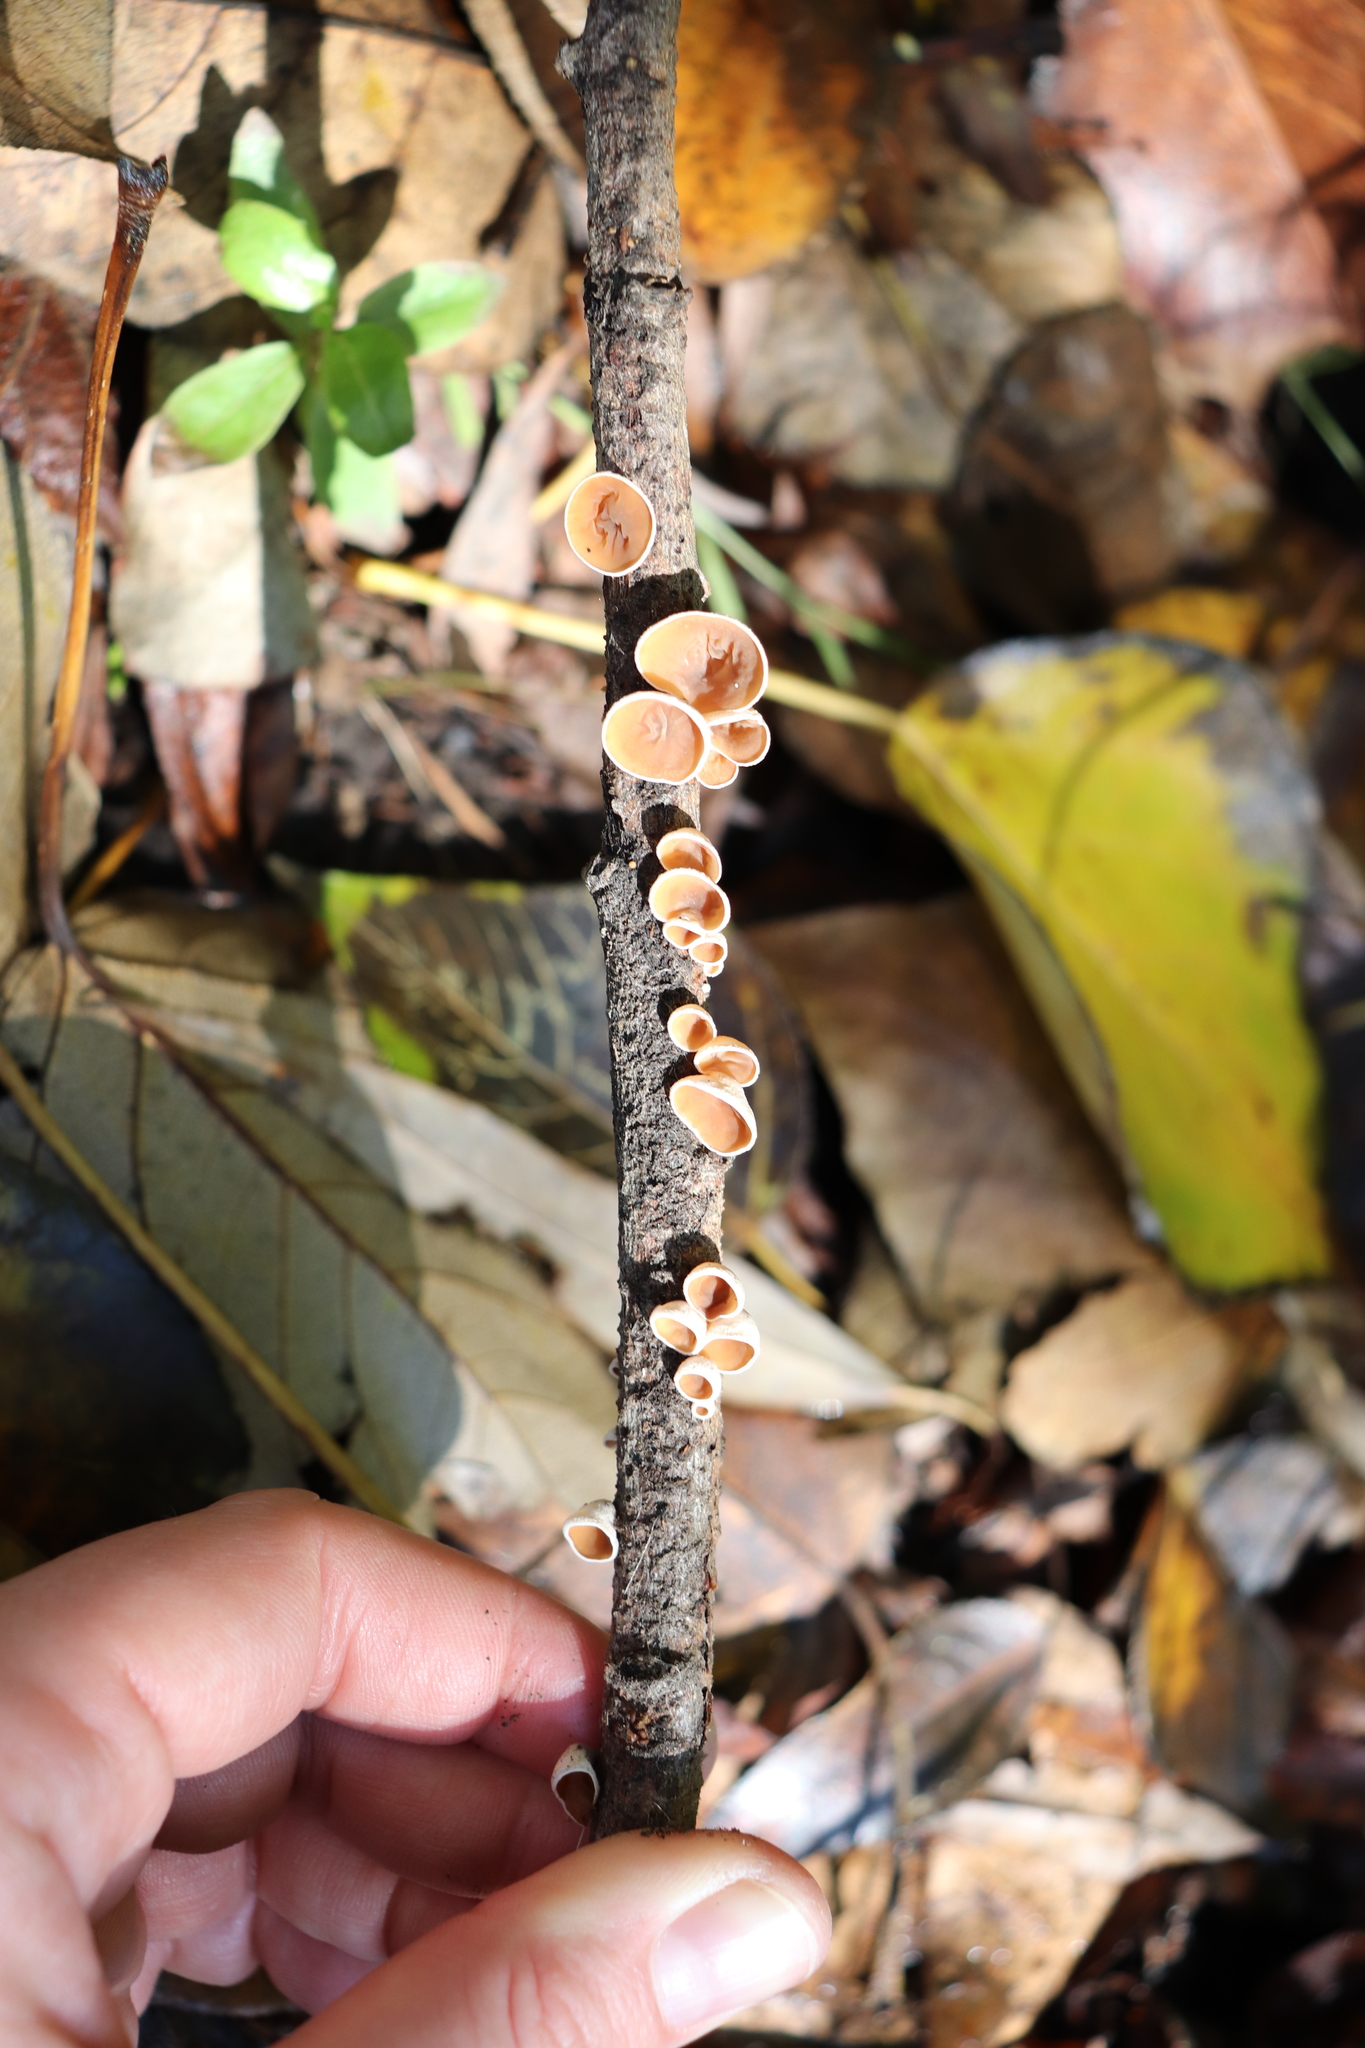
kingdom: Fungi
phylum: Basidiomycota
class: Agaricomycetes
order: Agaricales
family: Schizophyllaceae
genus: Schizophyllum
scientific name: Schizophyllum amplum
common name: Poplar bells
